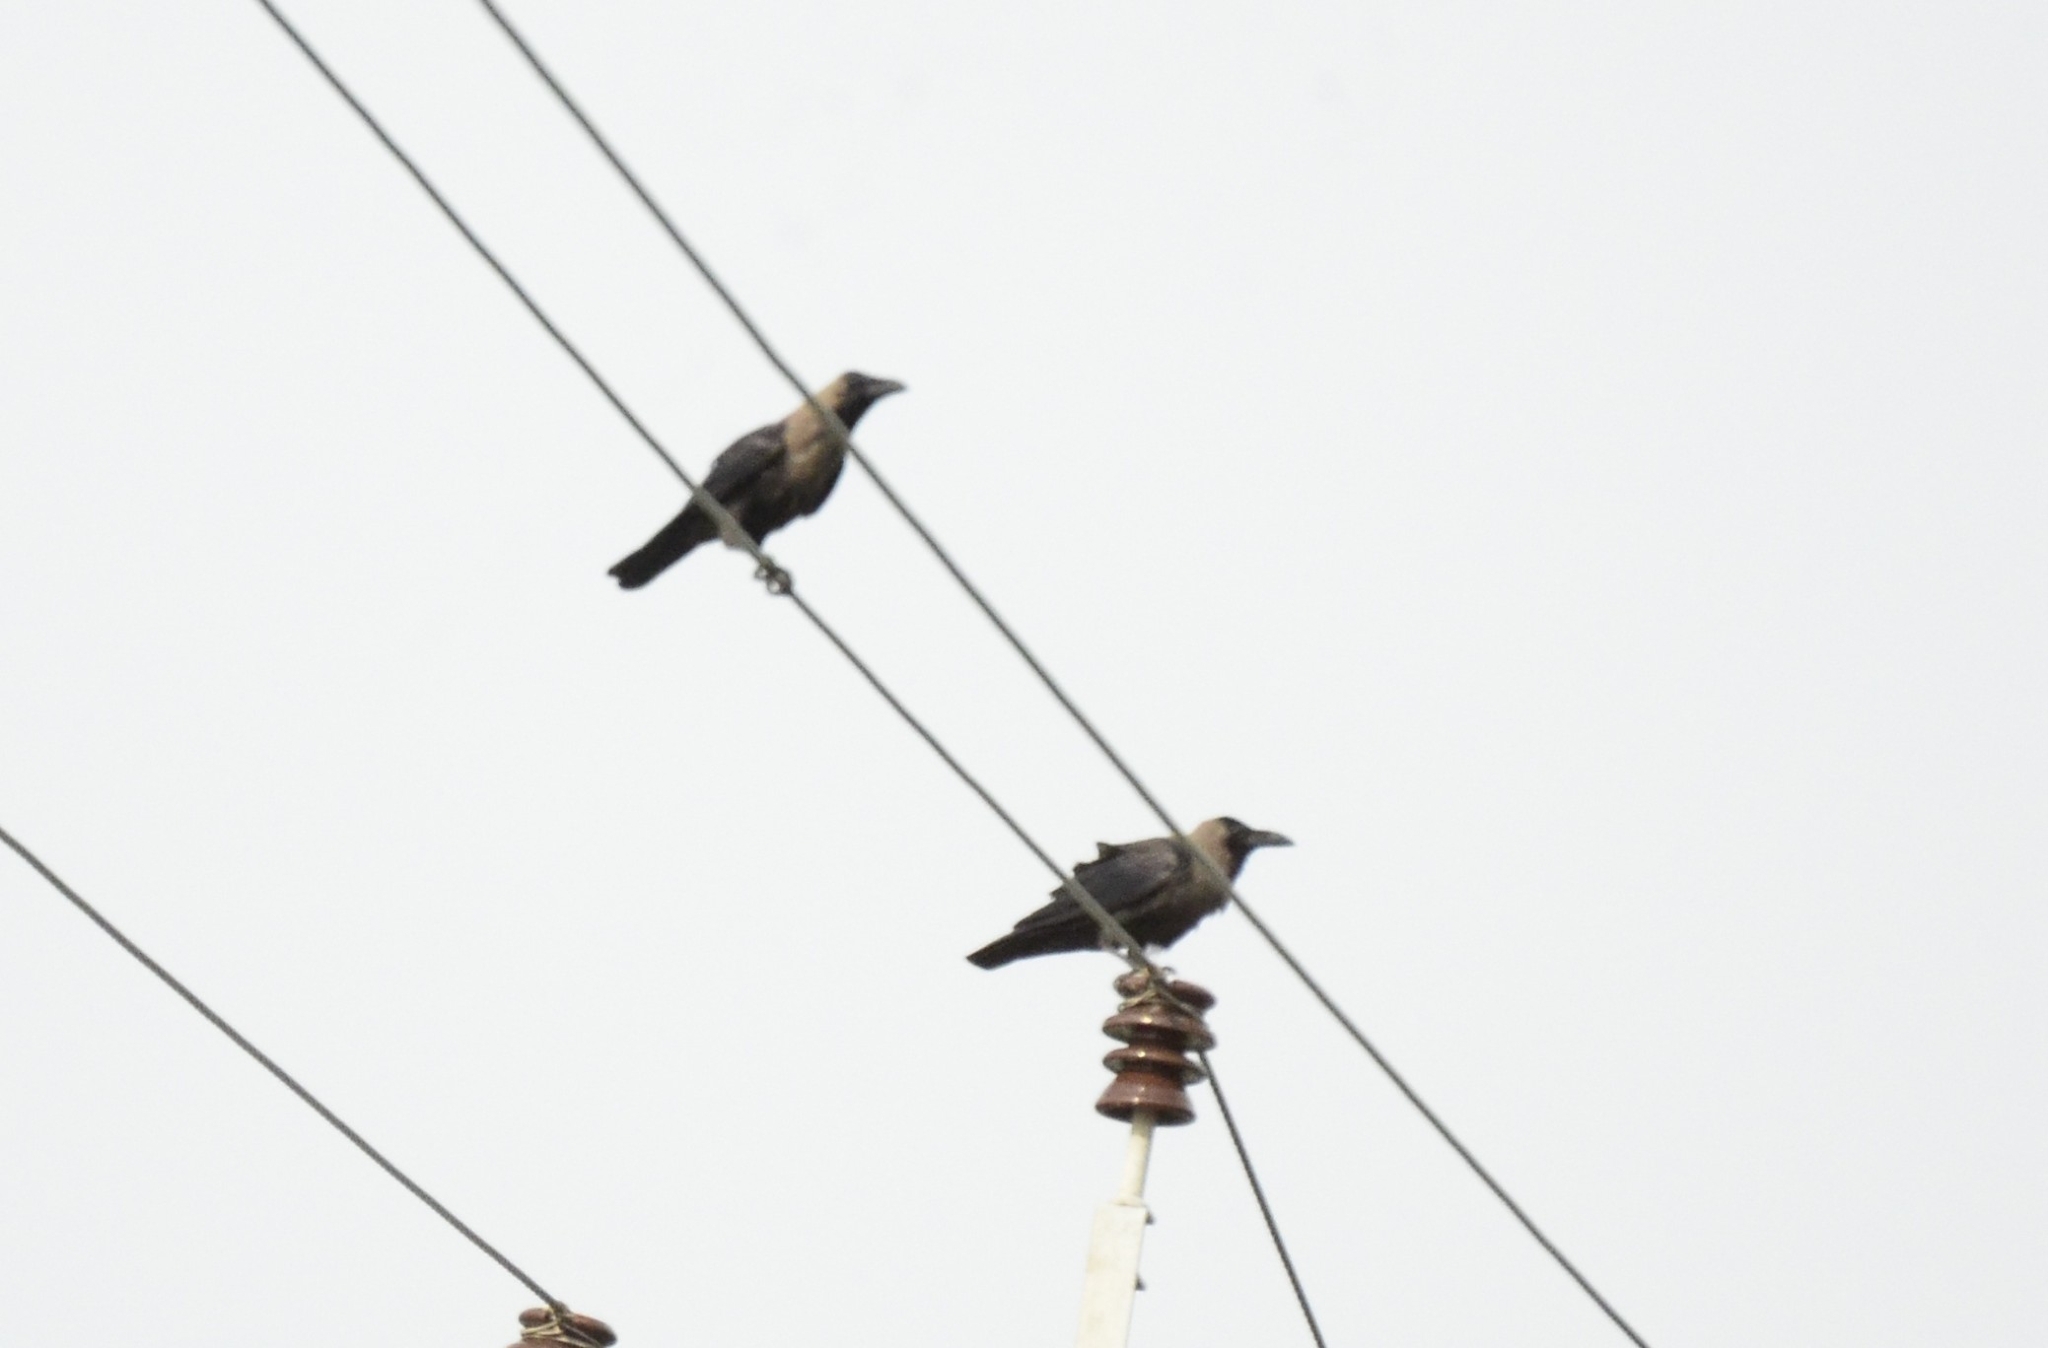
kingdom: Animalia
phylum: Chordata
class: Aves
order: Passeriformes
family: Corvidae
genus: Corvus
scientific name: Corvus splendens
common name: House crow
